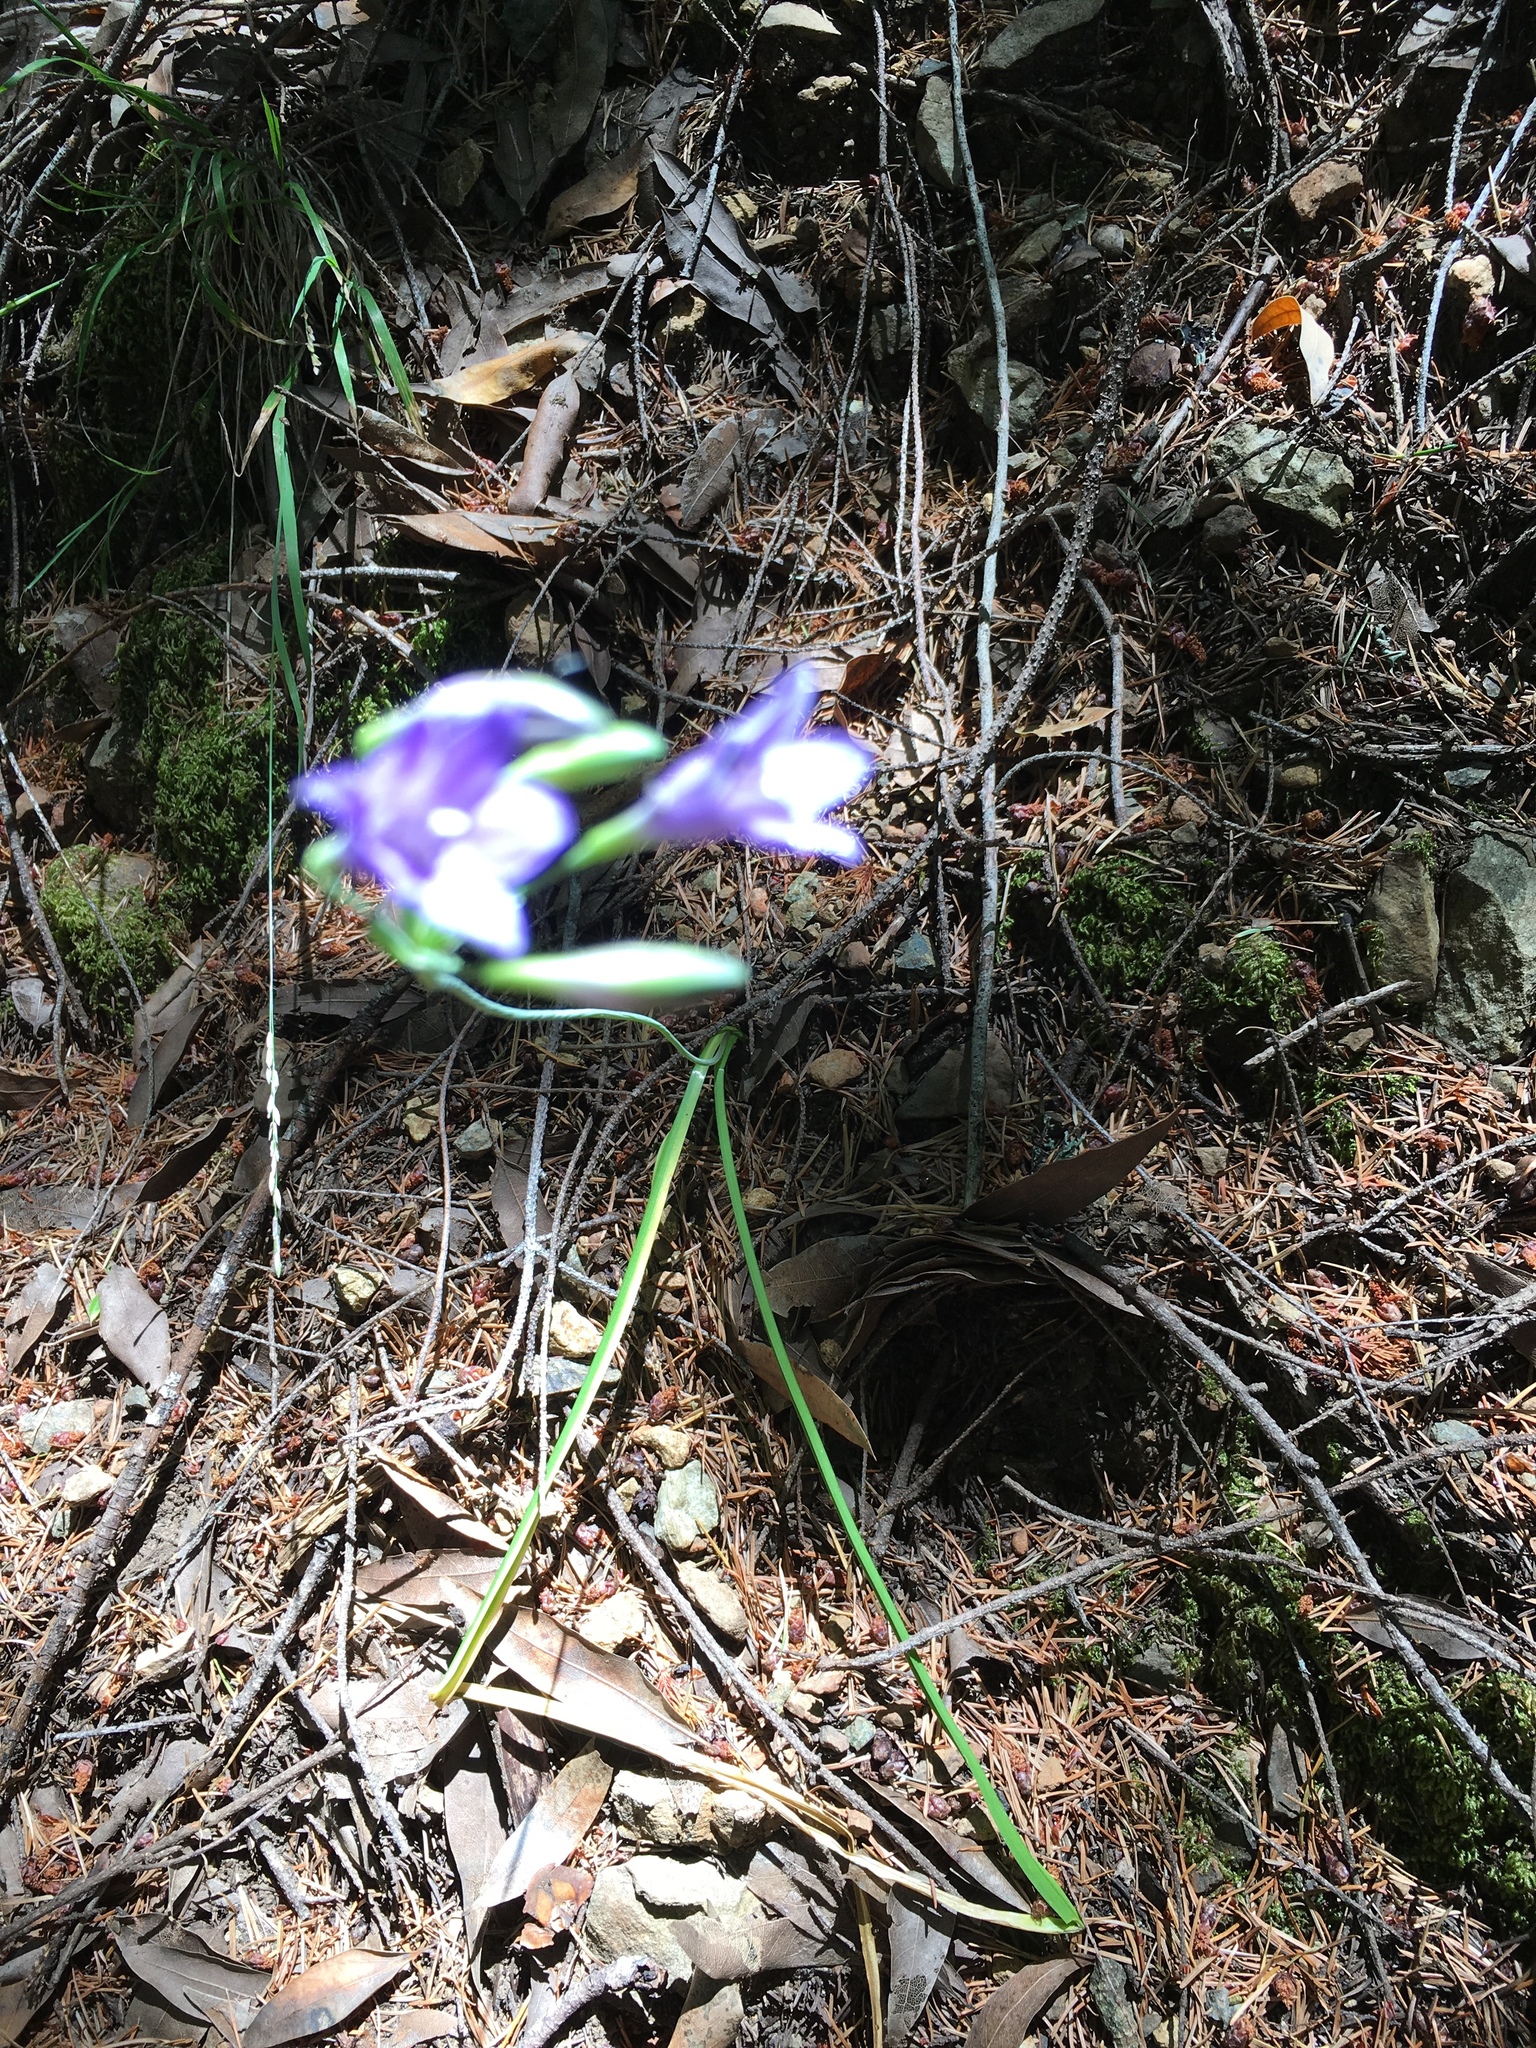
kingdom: Plantae
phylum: Tracheophyta
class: Liliopsida
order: Asparagales
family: Asparagaceae
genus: Triteleia
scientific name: Triteleia laxa
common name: Triplet-lily
